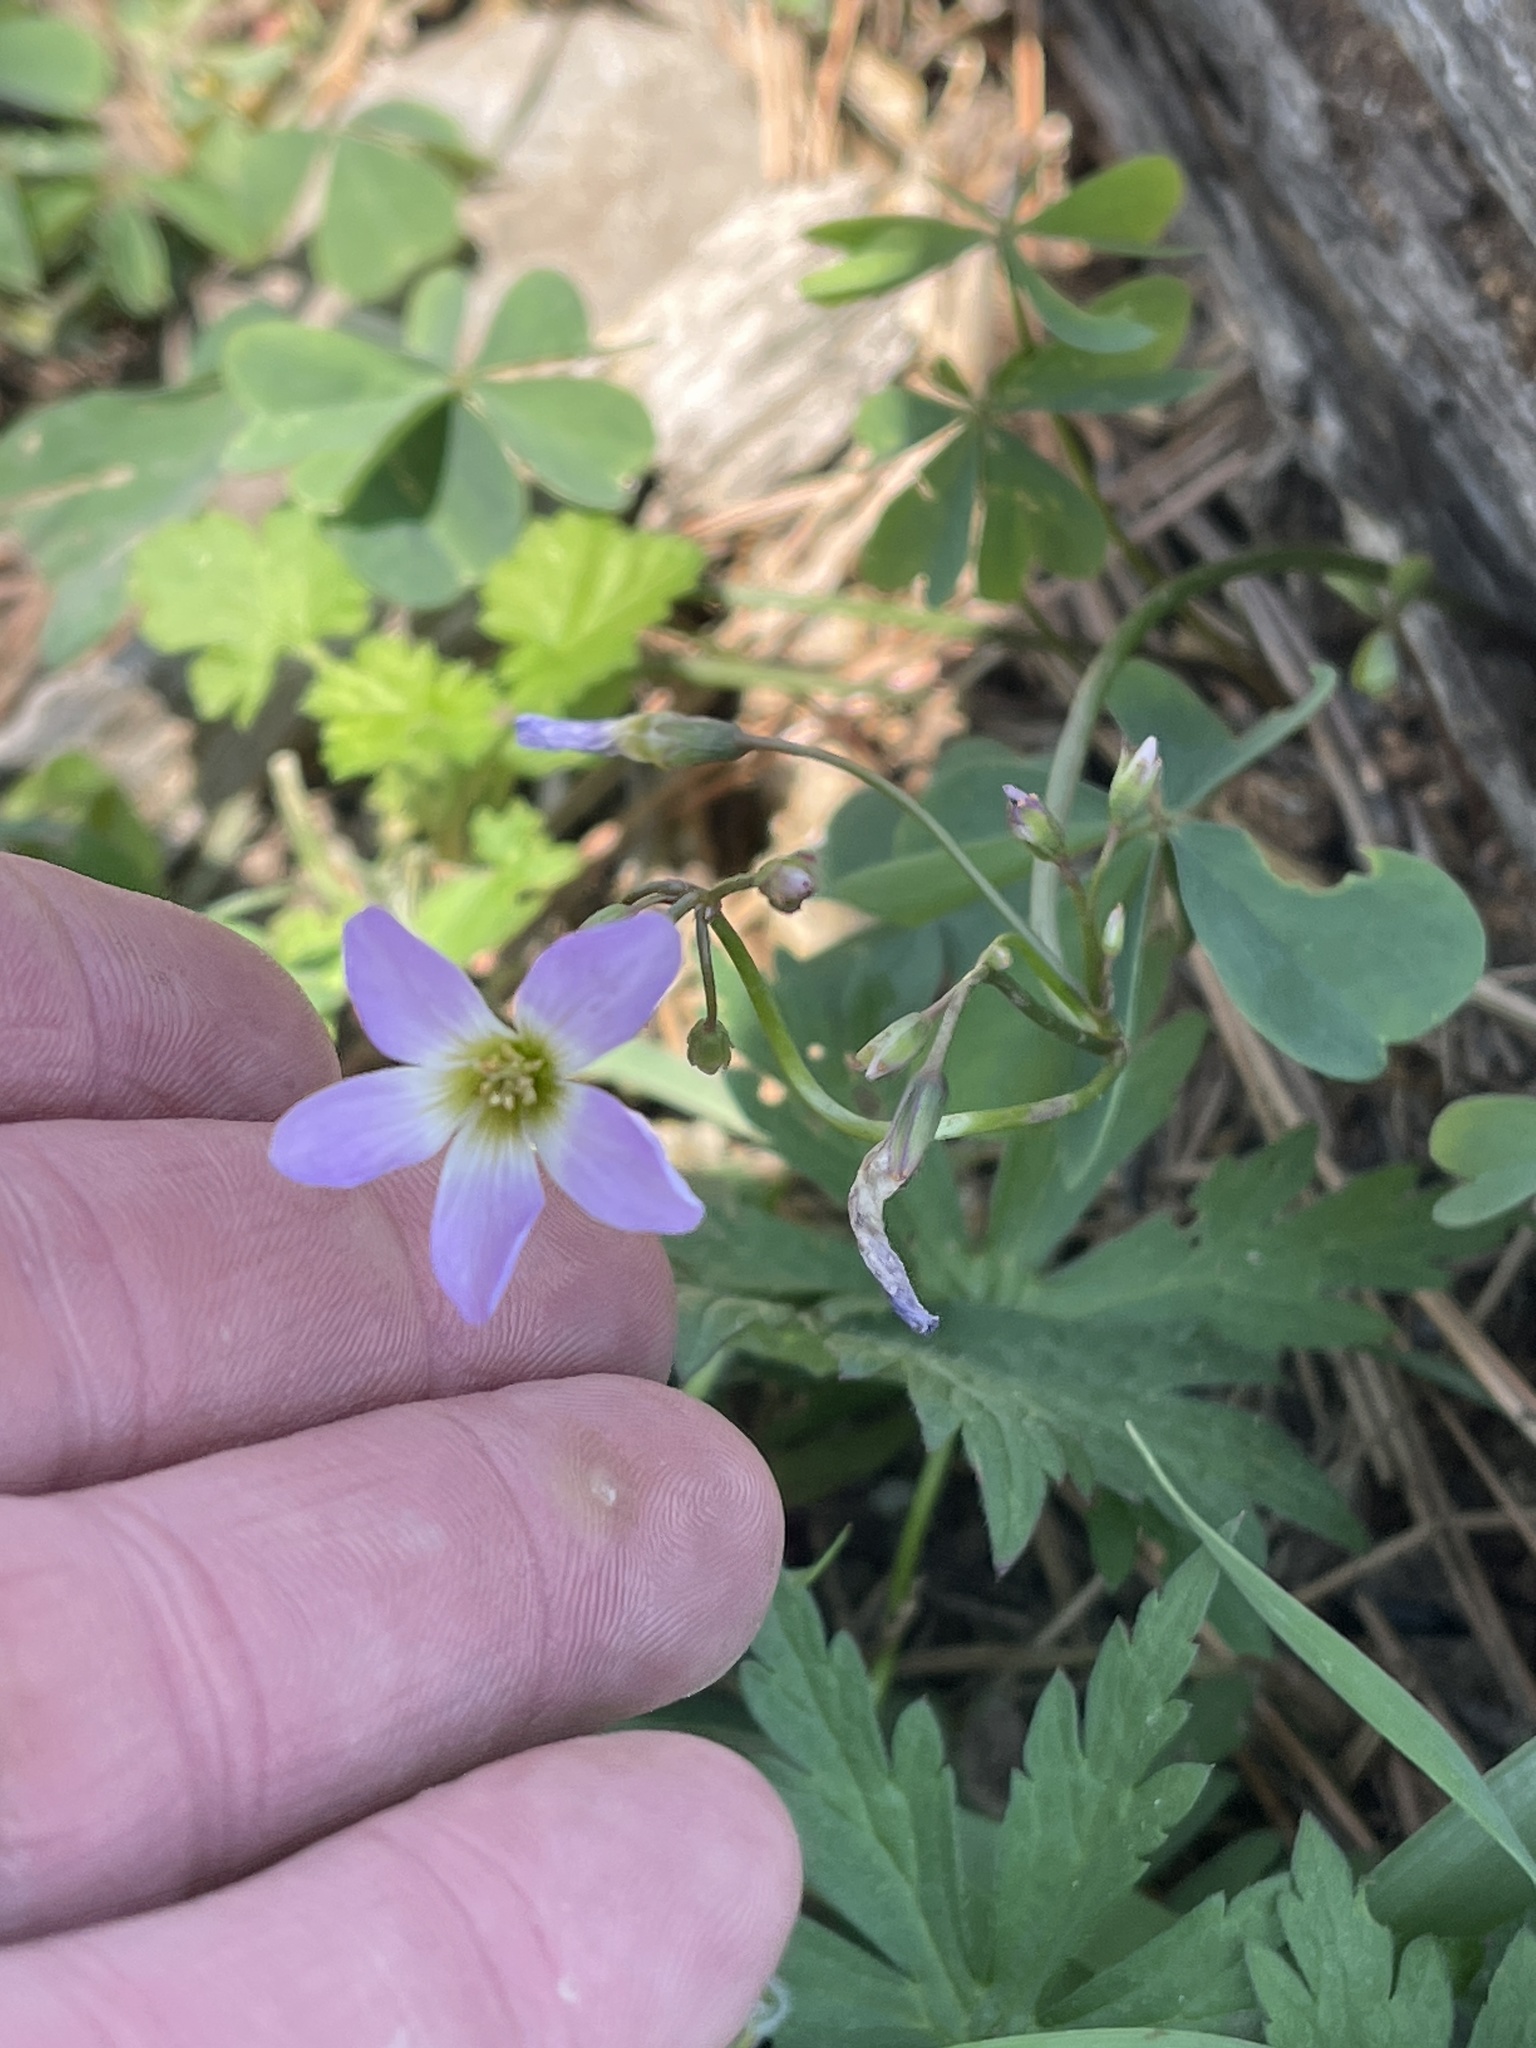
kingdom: Plantae
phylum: Tracheophyta
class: Magnoliopsida
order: Oxalidales
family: Oxalidaceae
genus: Oxalis
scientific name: Oxalis caerulea
